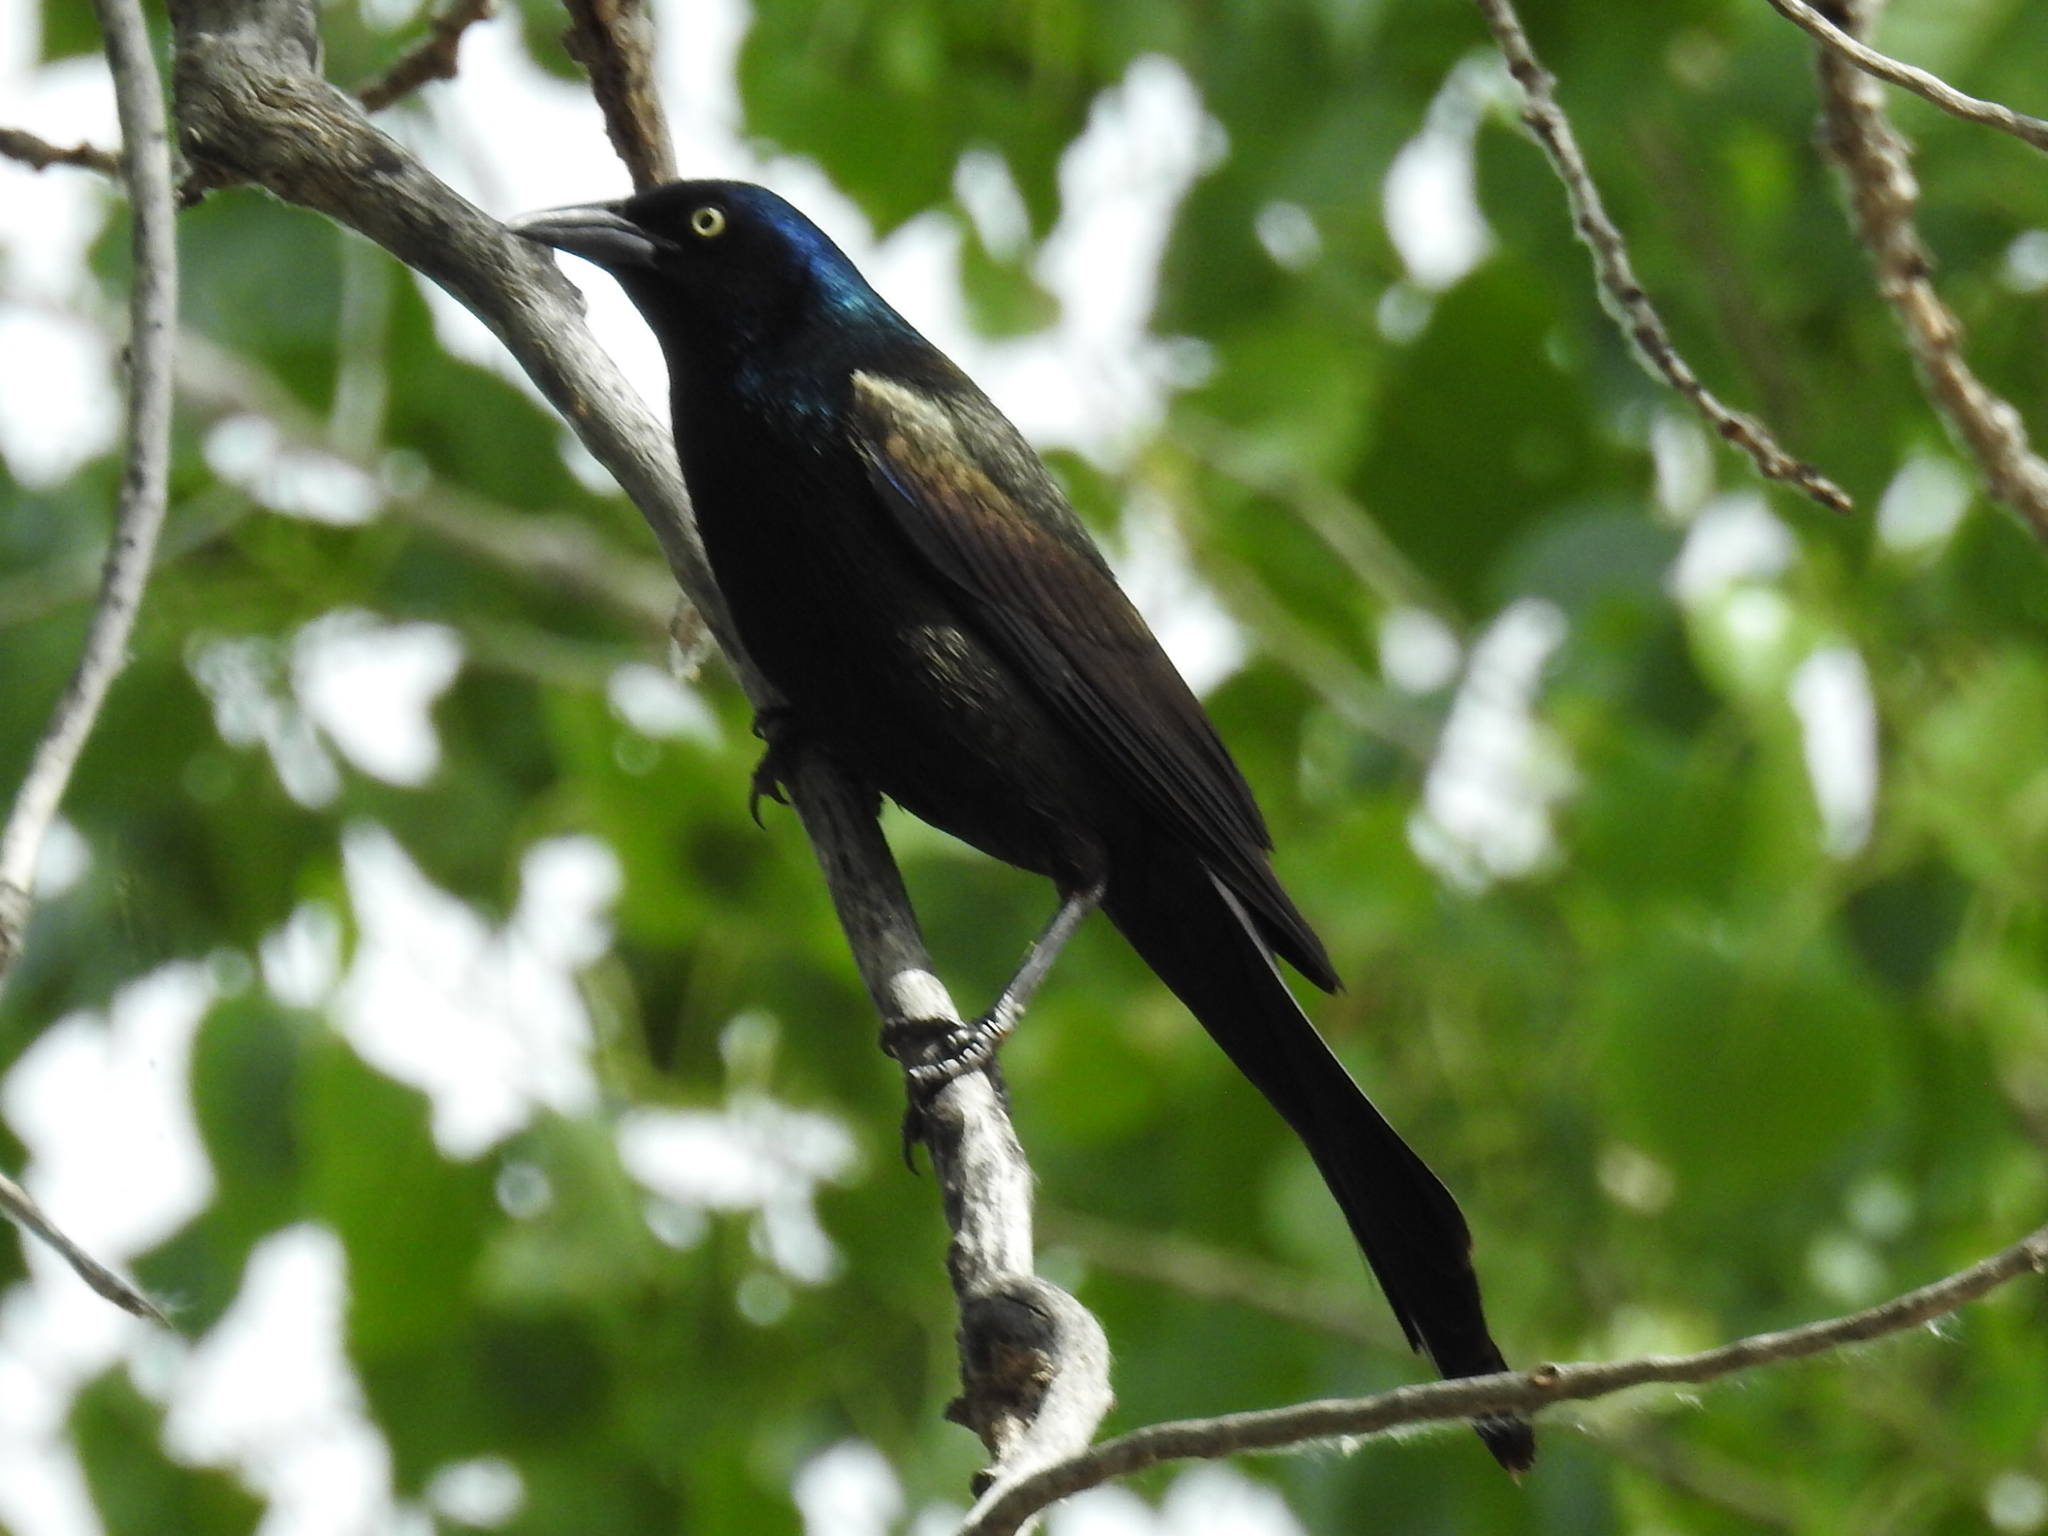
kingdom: Animalia
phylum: Chordata
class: Aves
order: Passeriformes
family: Icteridae
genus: Quiscalus
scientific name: Quiscalus quiscula
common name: Common grackle
